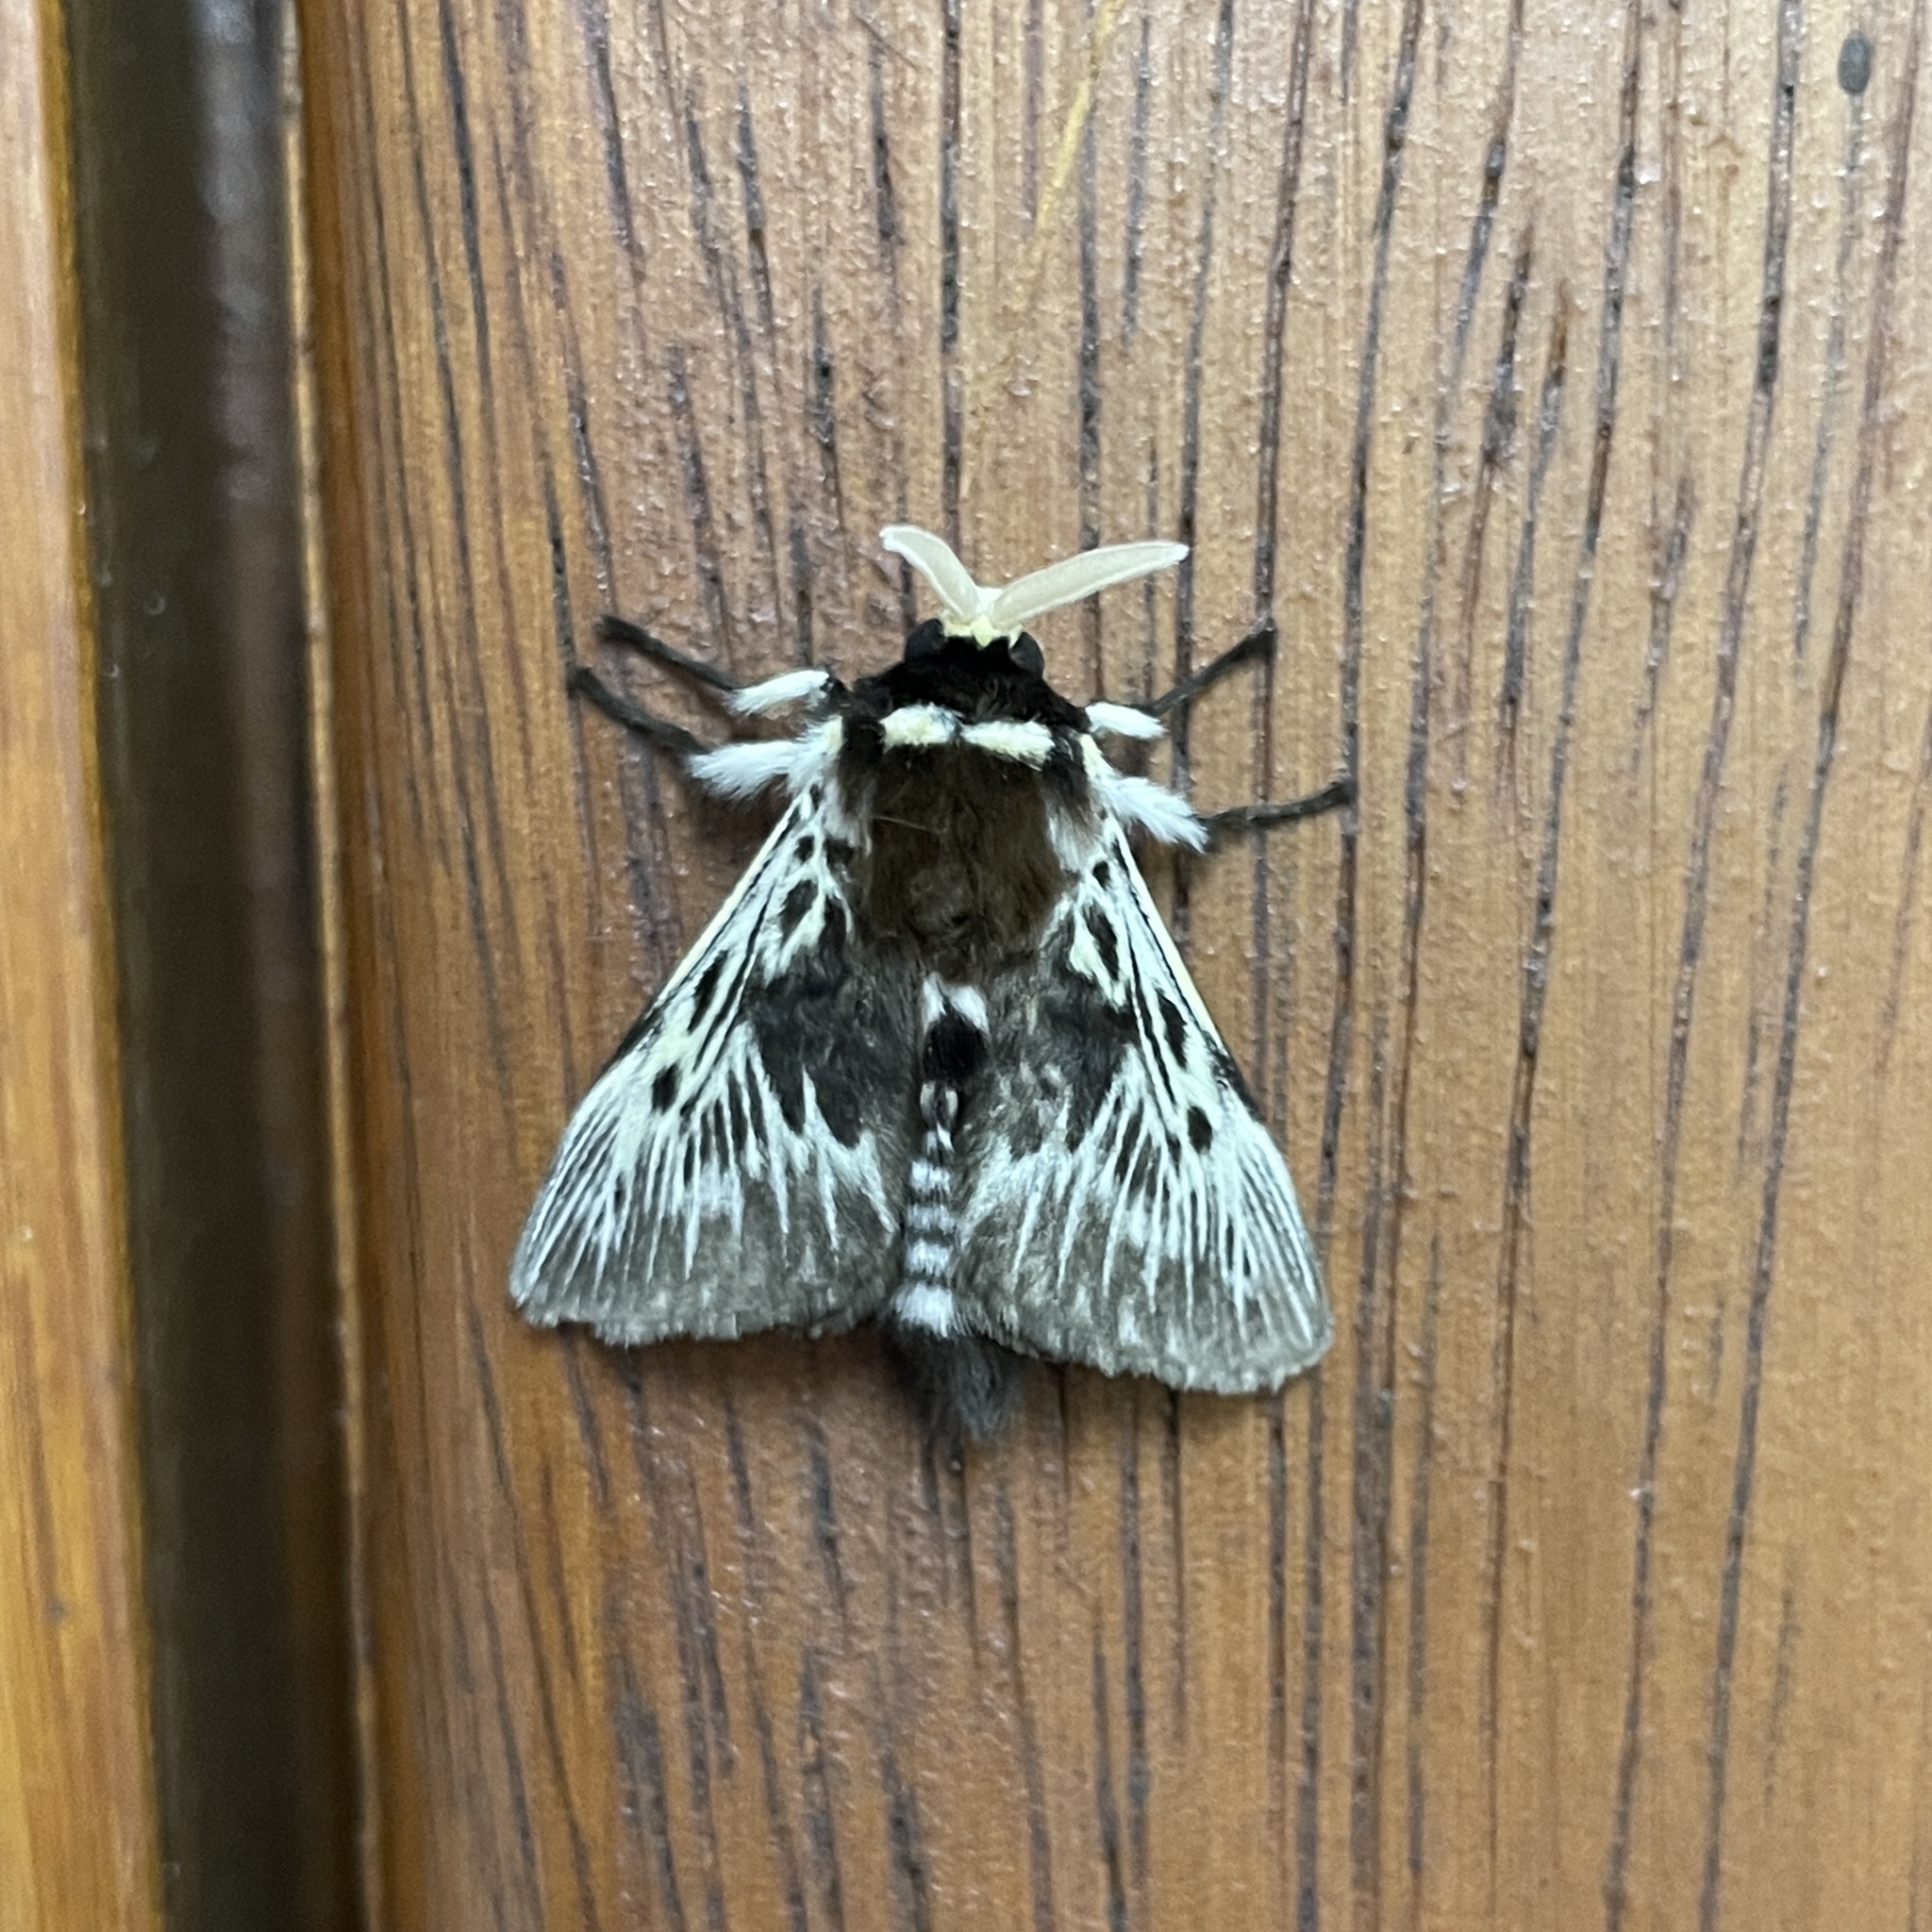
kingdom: Animalia
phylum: Arthropoda
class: Insecta
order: Lepidoptera
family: Megalopygidae
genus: Megalopyge
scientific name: Megalopyge albicollis
